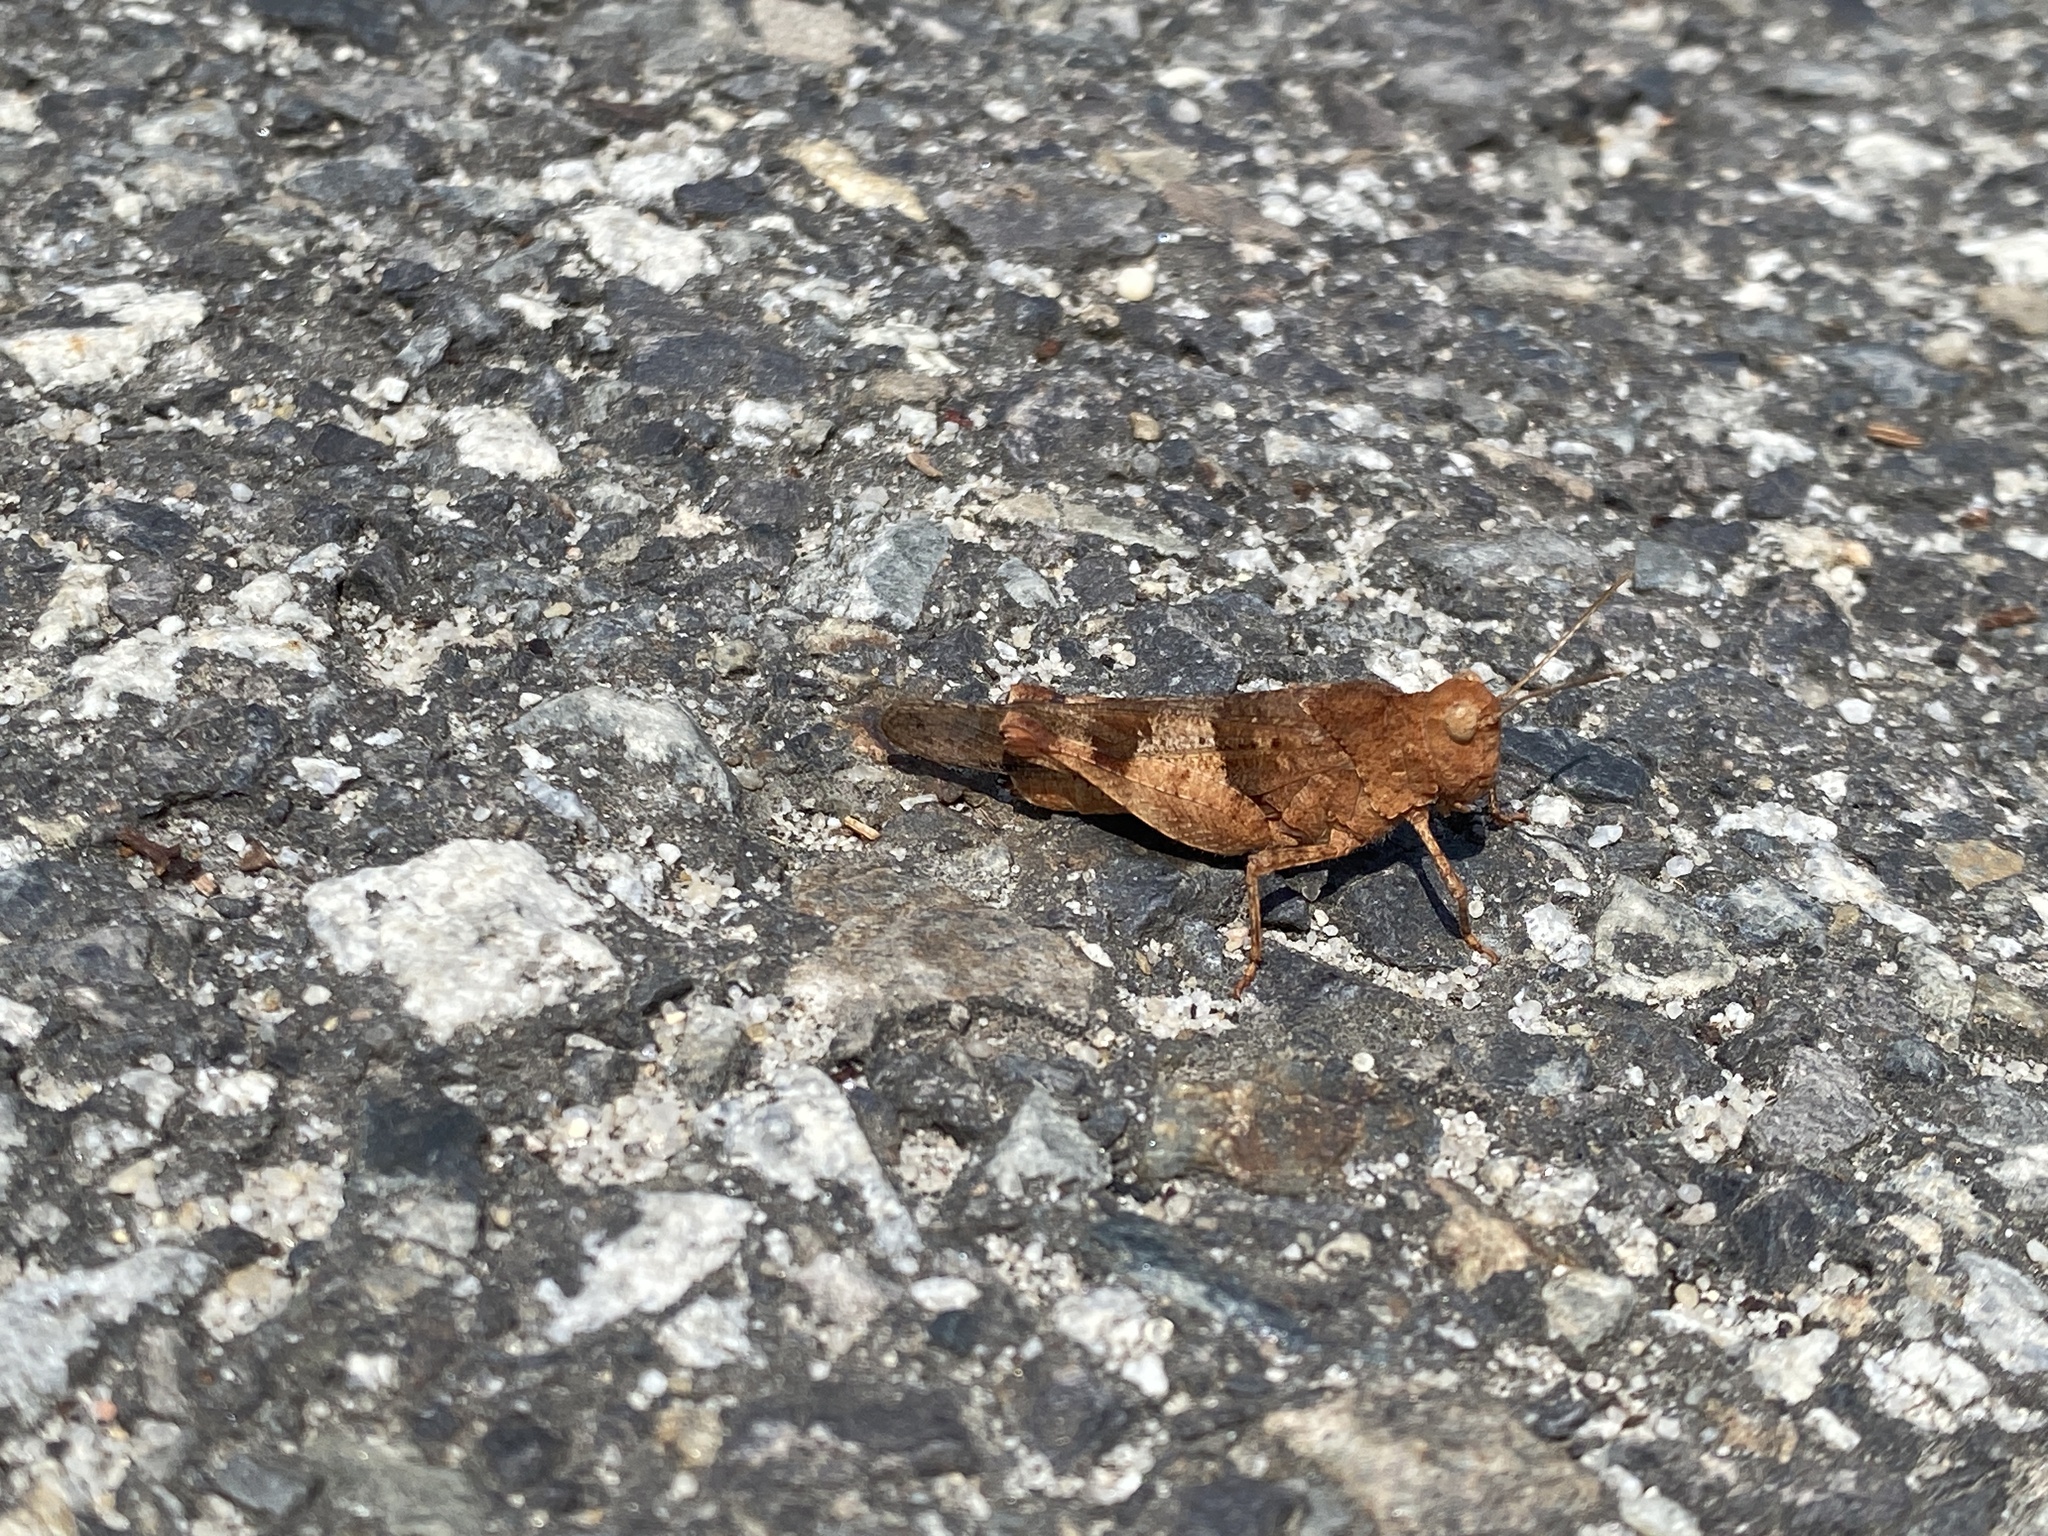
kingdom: Animalia
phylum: Arthropoda
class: Insecta
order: Orthoptera
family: Acrididae
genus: Oedipoda
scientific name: Oedipoda caerulescens
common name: Blue-winged grasshopper
